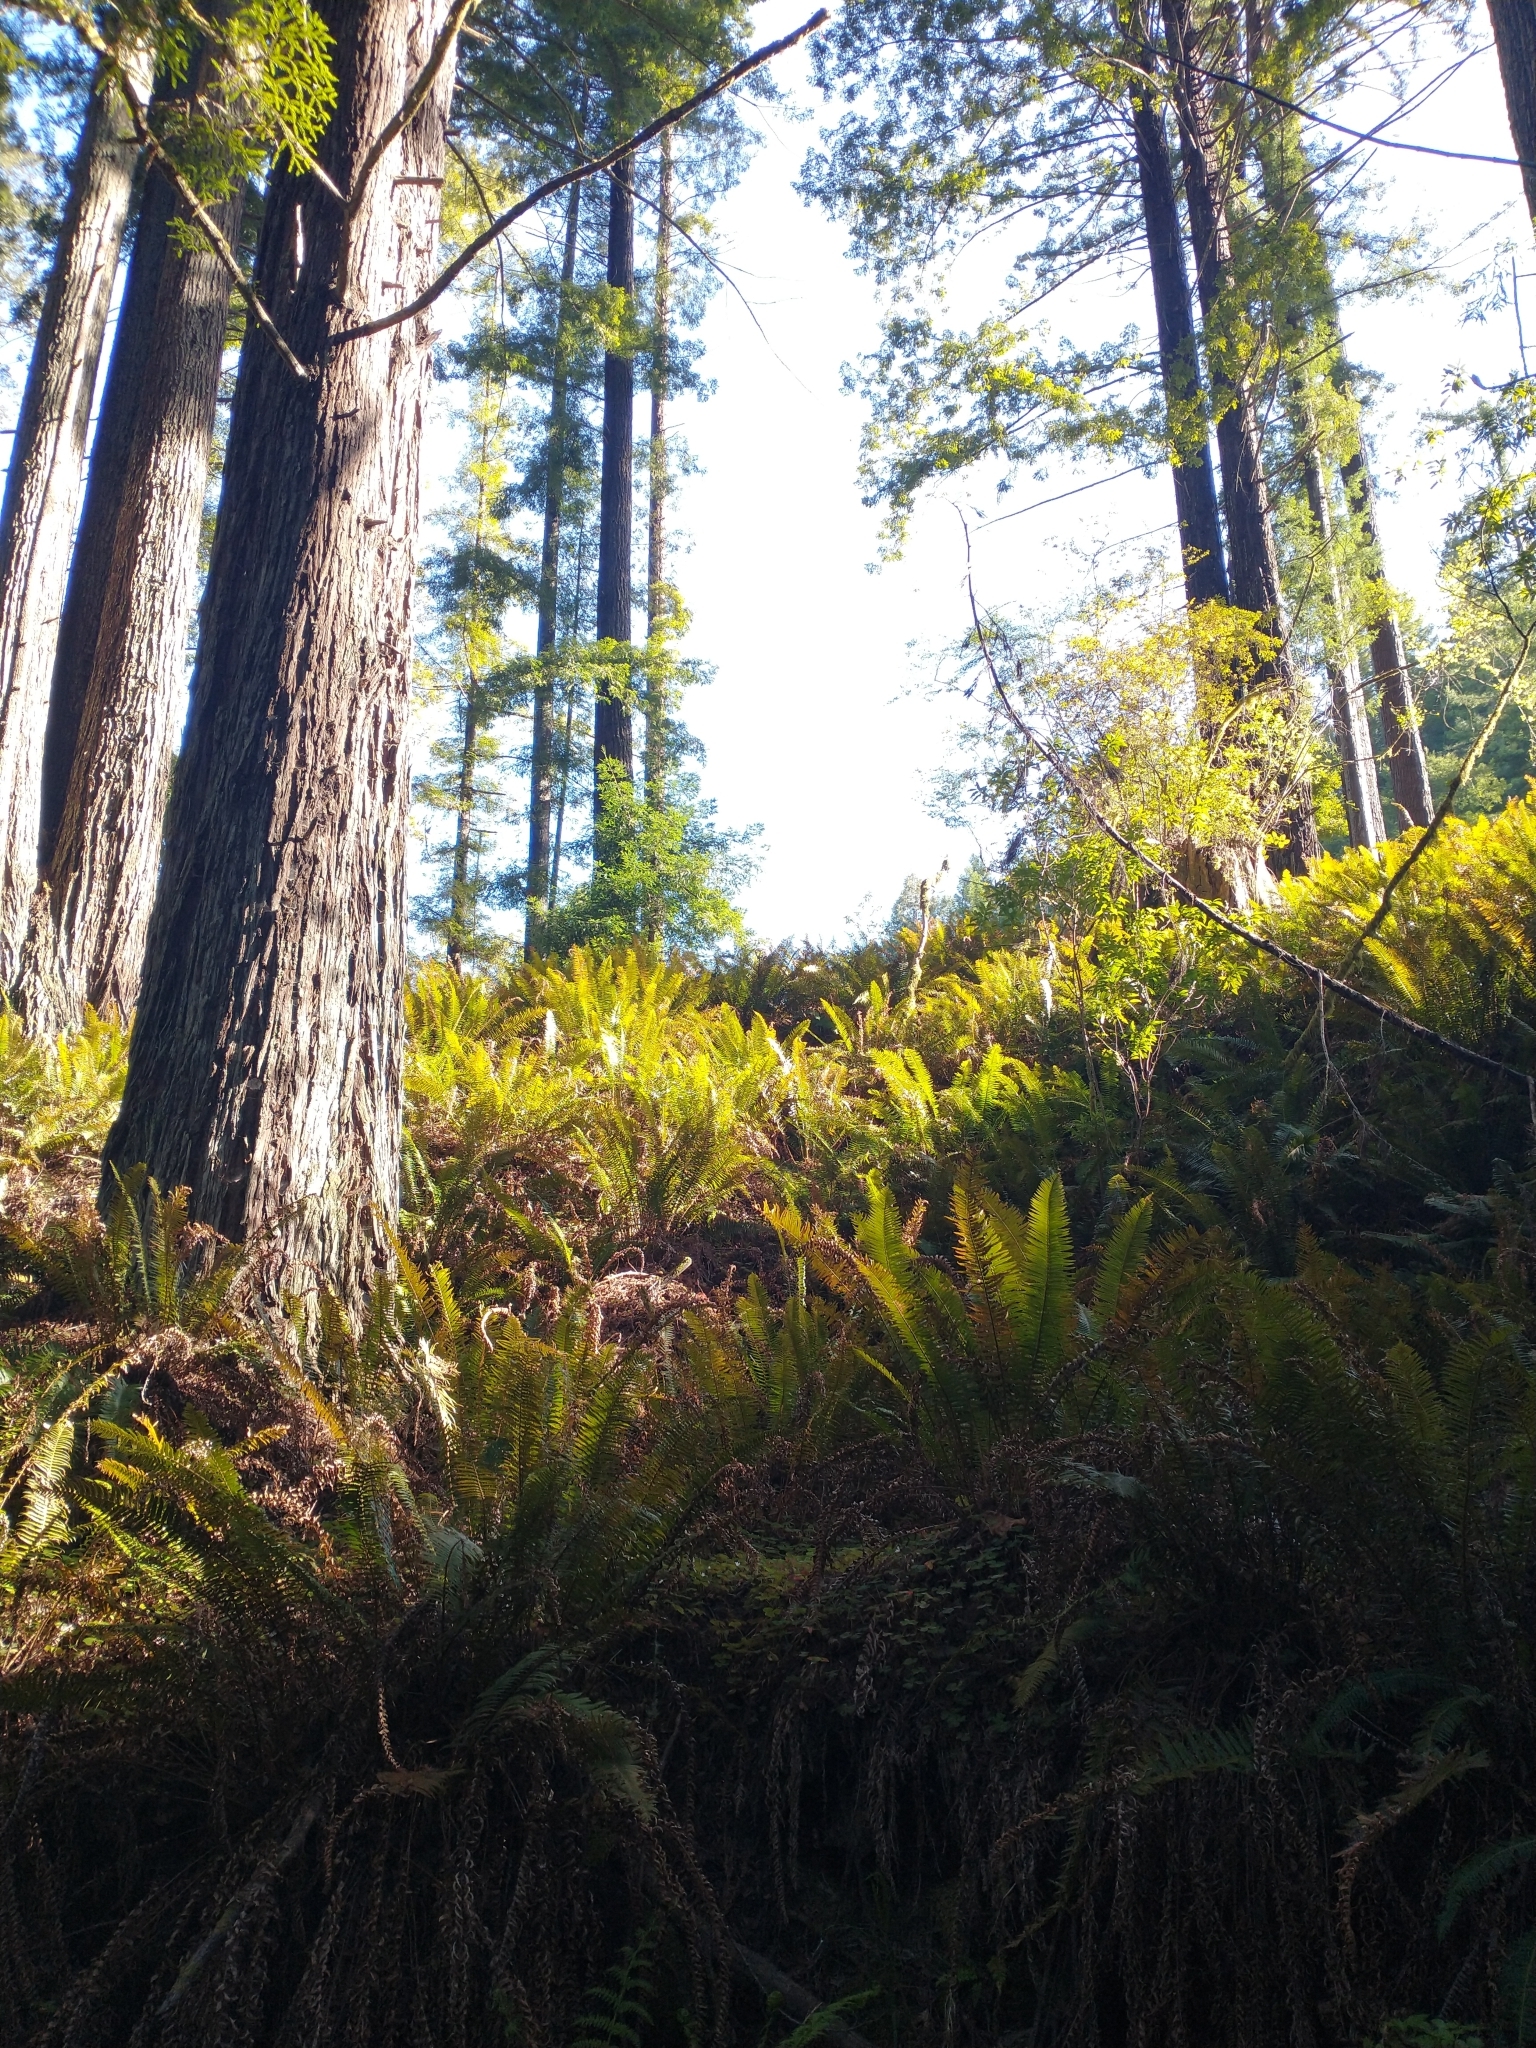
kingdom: Plantae
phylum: Tracheophyta
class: Pinopsida
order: Pinales
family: Cupressaceae
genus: Sequoia
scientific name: Sequoia sempervirens
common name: Coast redwood
